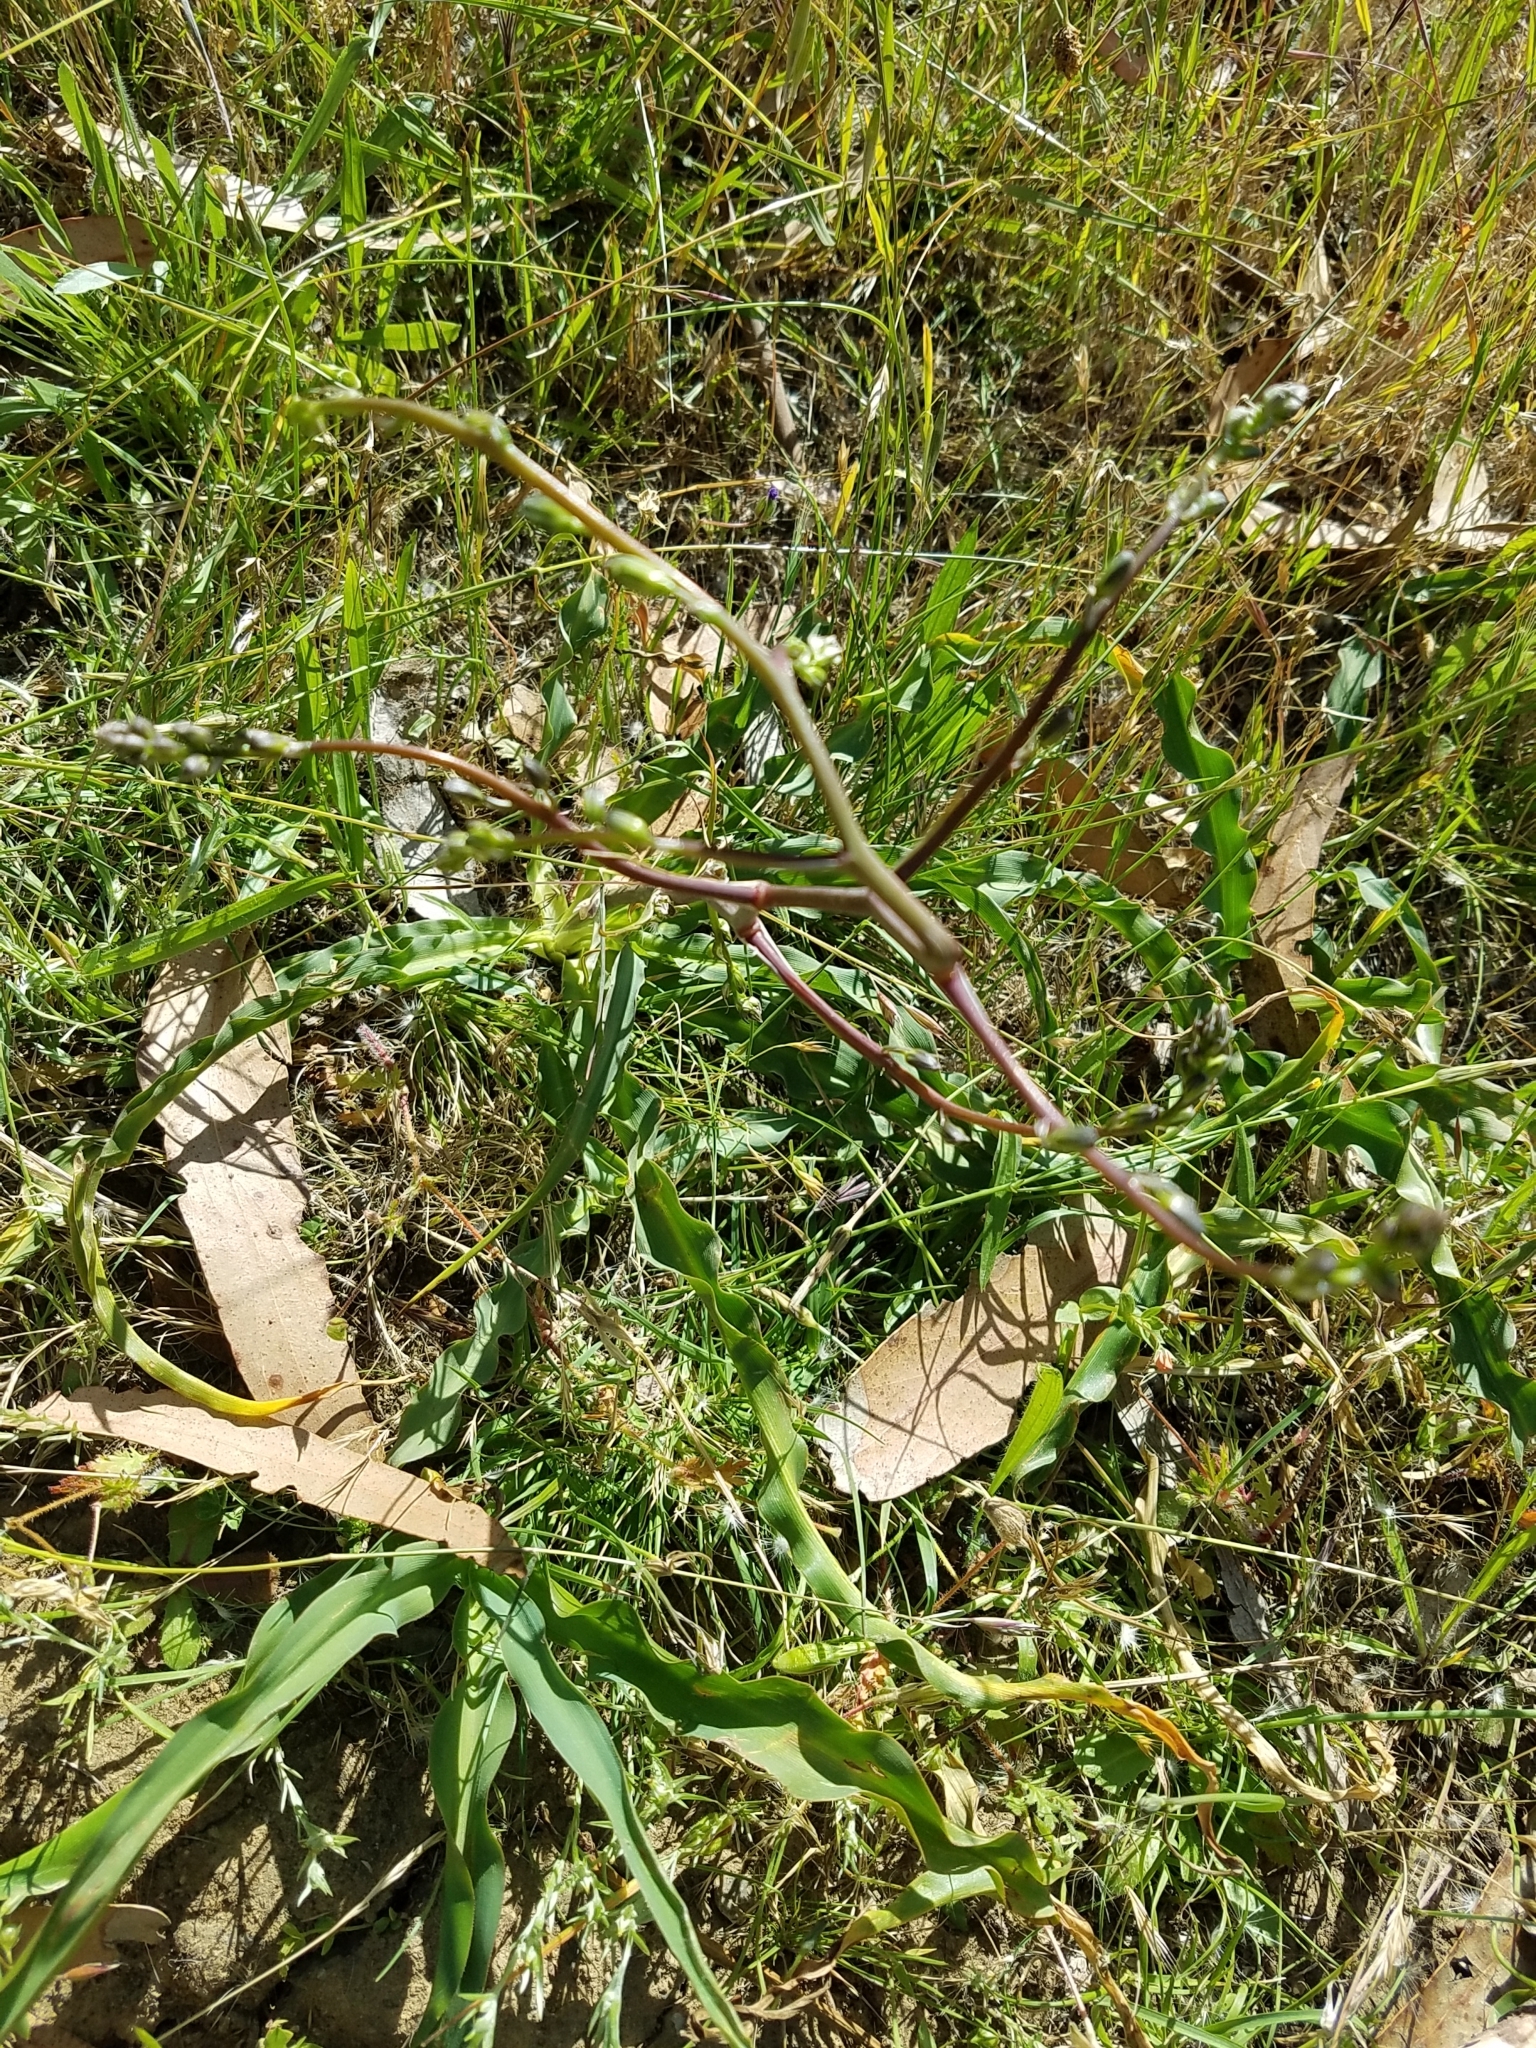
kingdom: Plantae
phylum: Tracheophyta
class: Liliopsida
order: Asparagales
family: Asparagaceae
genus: Chlorogalum
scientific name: Chlorogalum pomeridianum
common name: Amole
